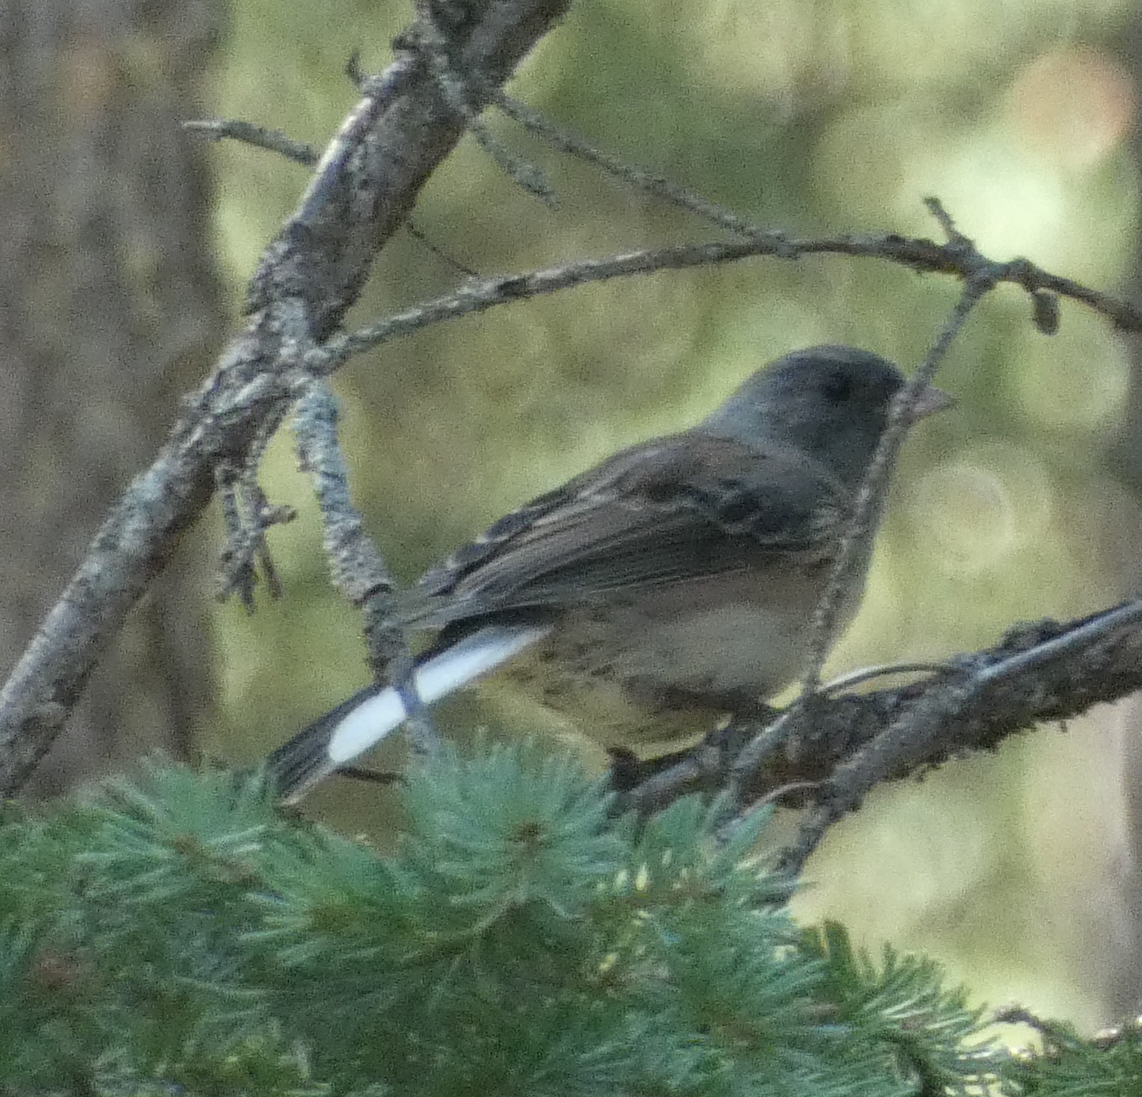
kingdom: Animalia
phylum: Chordata
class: Aves
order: Passeriformes
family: Passerellidae
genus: Junco
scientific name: Junco hyemalis
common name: Dark-eyed junco
